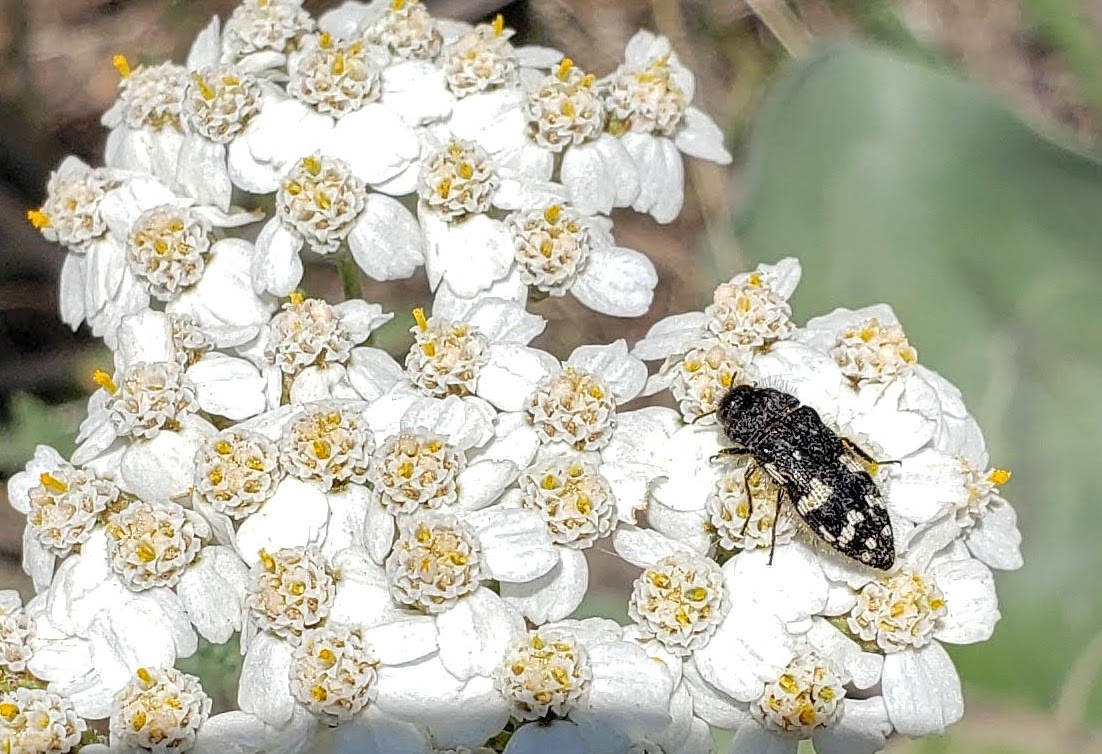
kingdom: Animalia
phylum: Arthropoda
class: Insecta
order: Coleoptera
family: Buprestidae
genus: Acmaeodera
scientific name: Acmaeodera idahoensis
